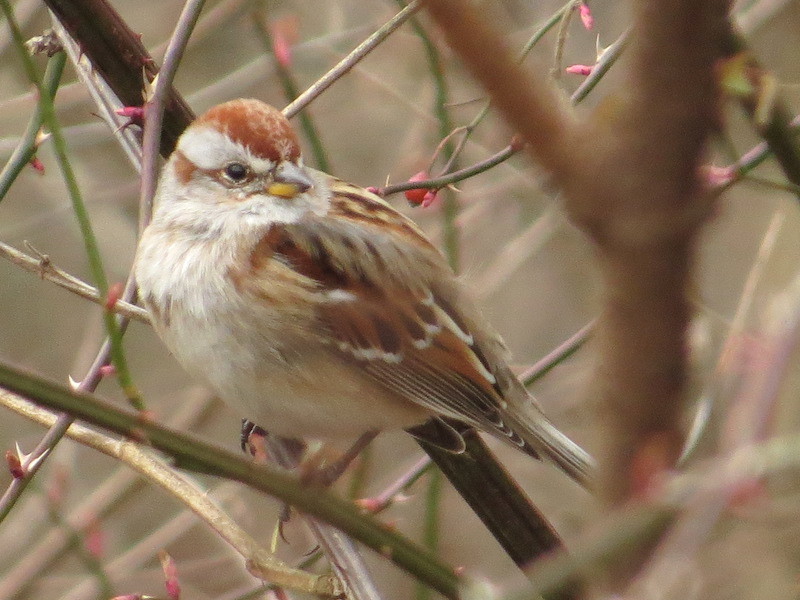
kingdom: Animalia
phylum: Chordata
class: Aves
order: Passeriformes
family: Passerellidae
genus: Spizelloides
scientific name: Spizelloides arborea
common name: American tree sparrow
